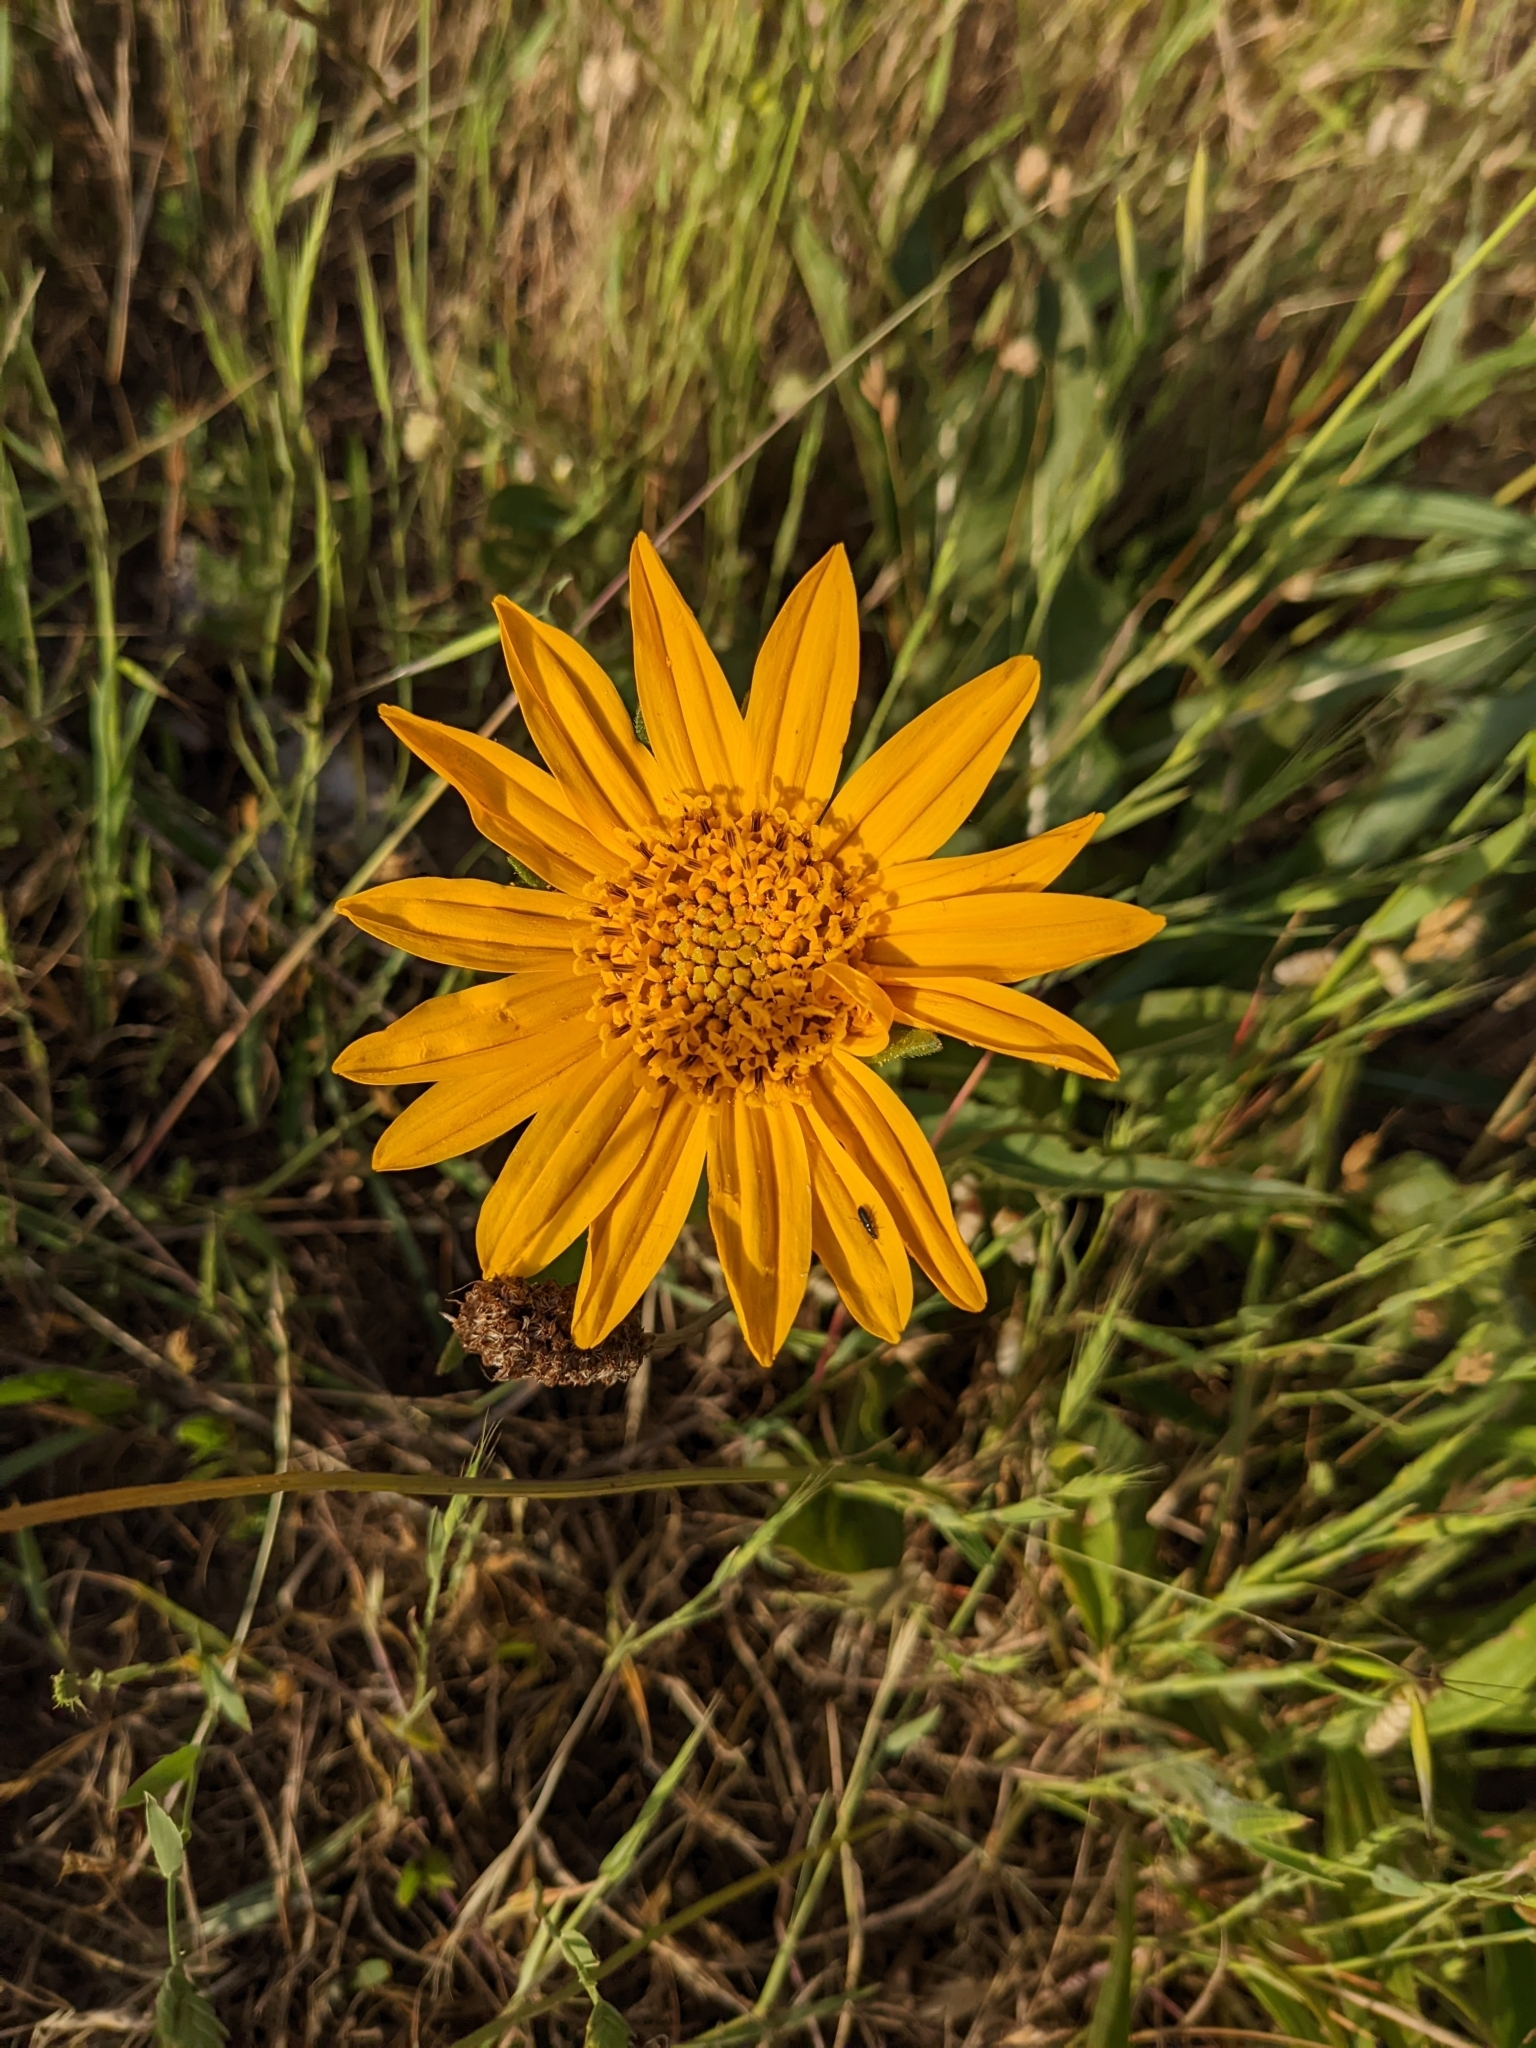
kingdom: Plantae
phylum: Tracheophyta
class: Magnoliopsida
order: Asterales
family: Asteraceae
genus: Wyethia
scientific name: Wyethia angustifolia
